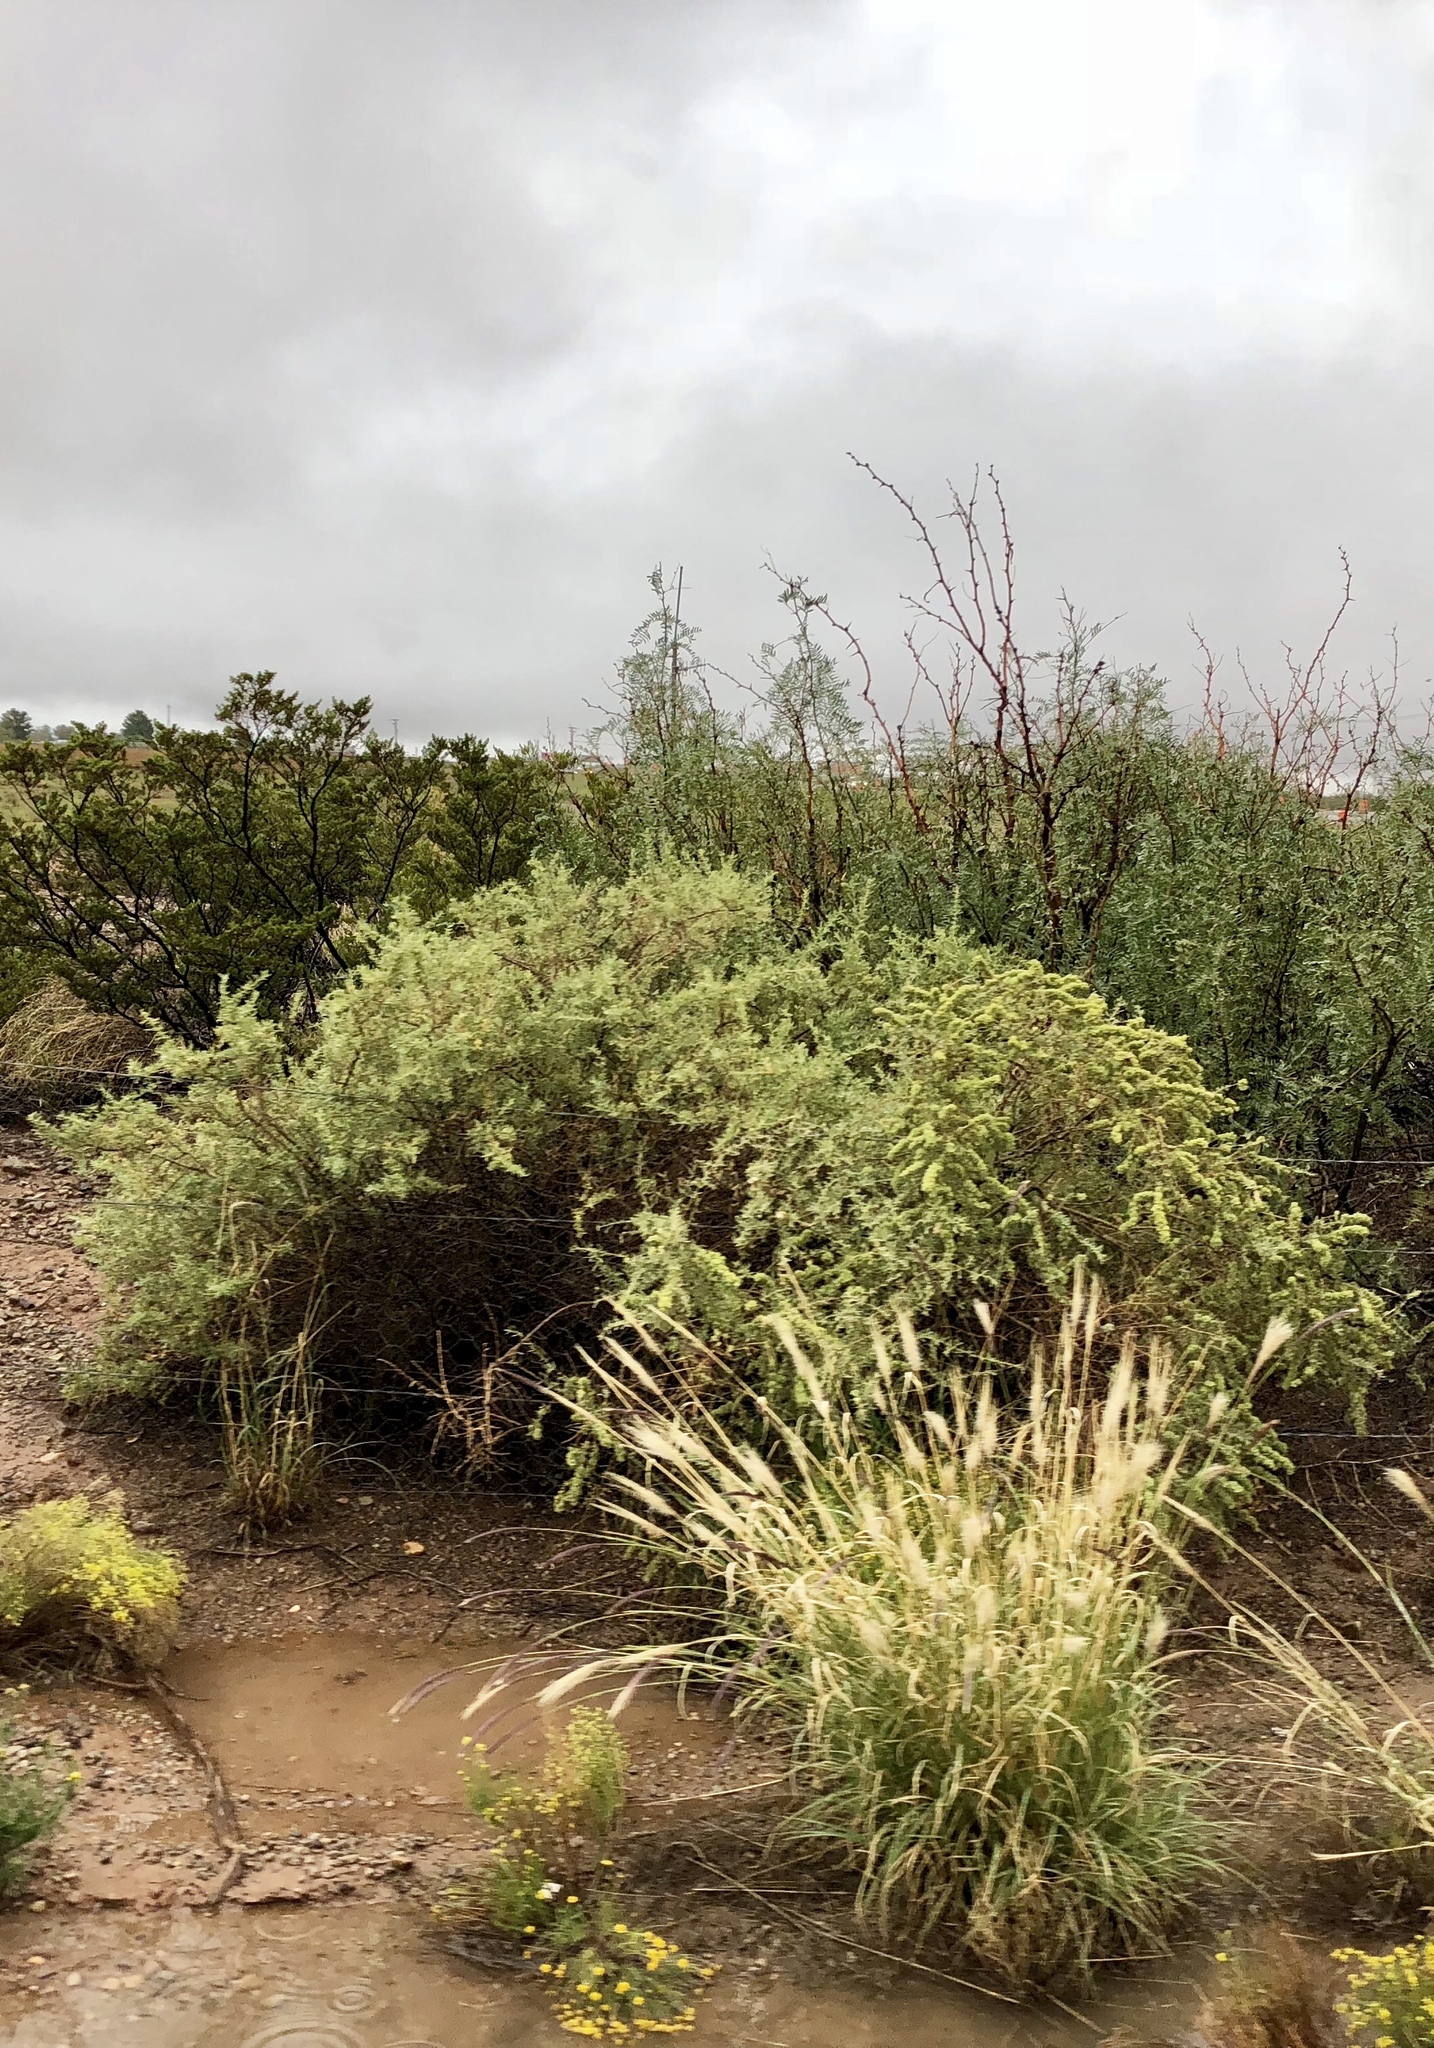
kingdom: Plantae
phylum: Tracheophyta
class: Magnoliopsida
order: Caryophyllales
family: Amaranthaceae
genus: Atriplex
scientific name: Atriplex canescens
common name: Four-wing saltbush
